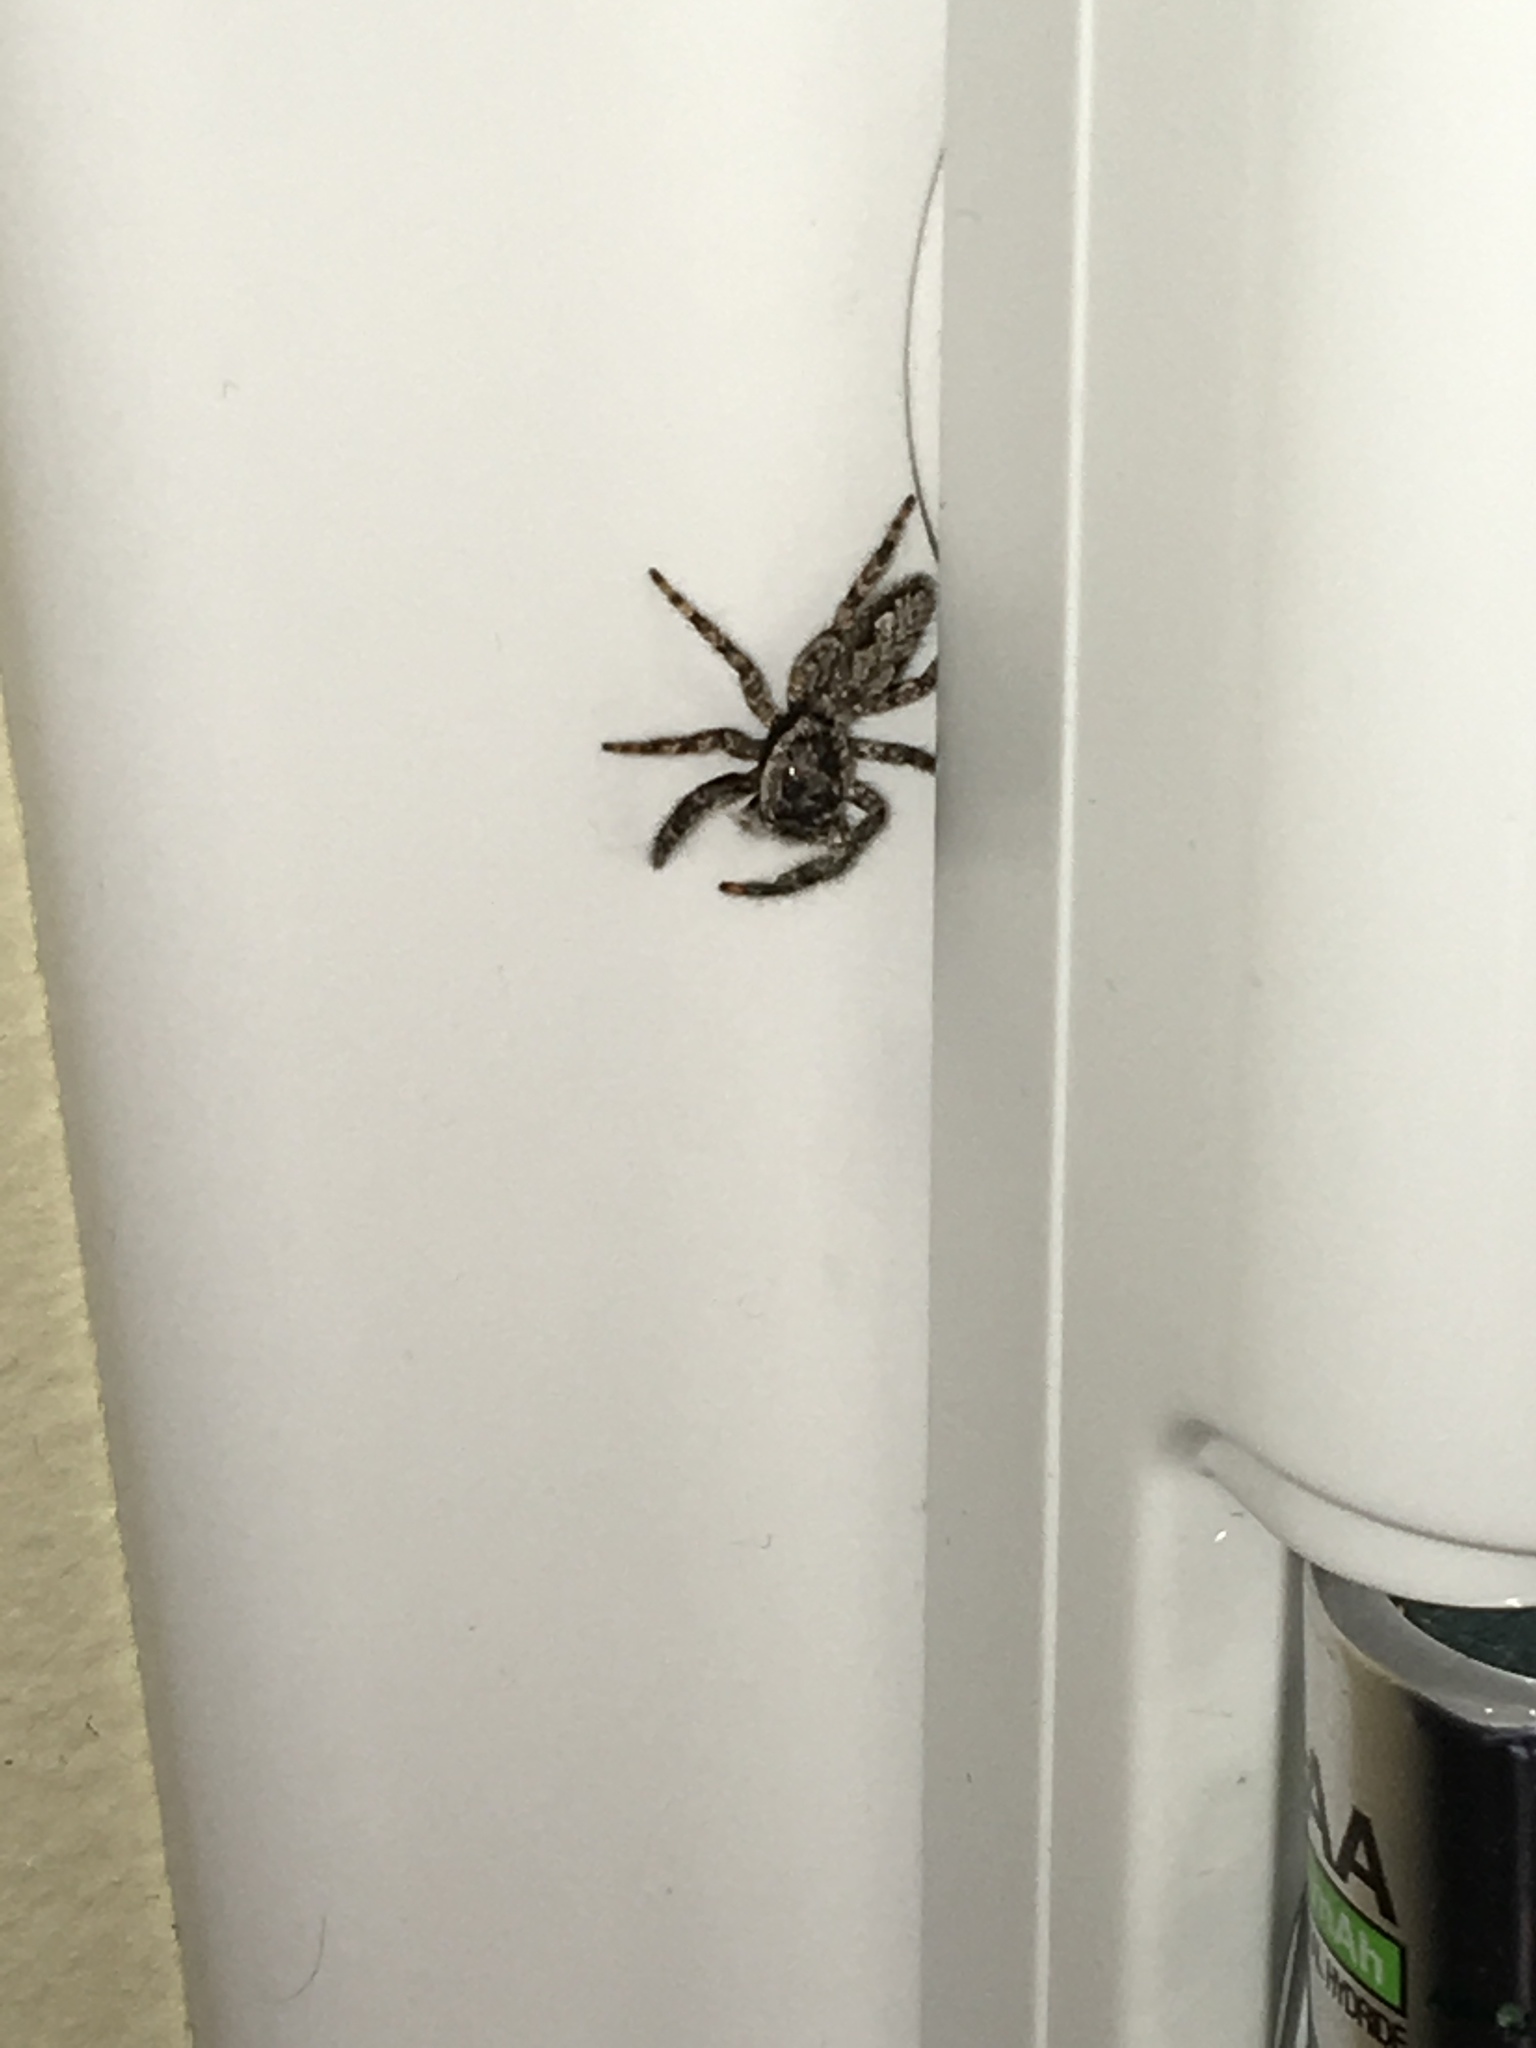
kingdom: Animalia
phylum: Arthropoda
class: Arachnida
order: Araneae
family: Salticidae
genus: Platycryptus
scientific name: Platycryptus undatus
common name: Tan jumping spider
